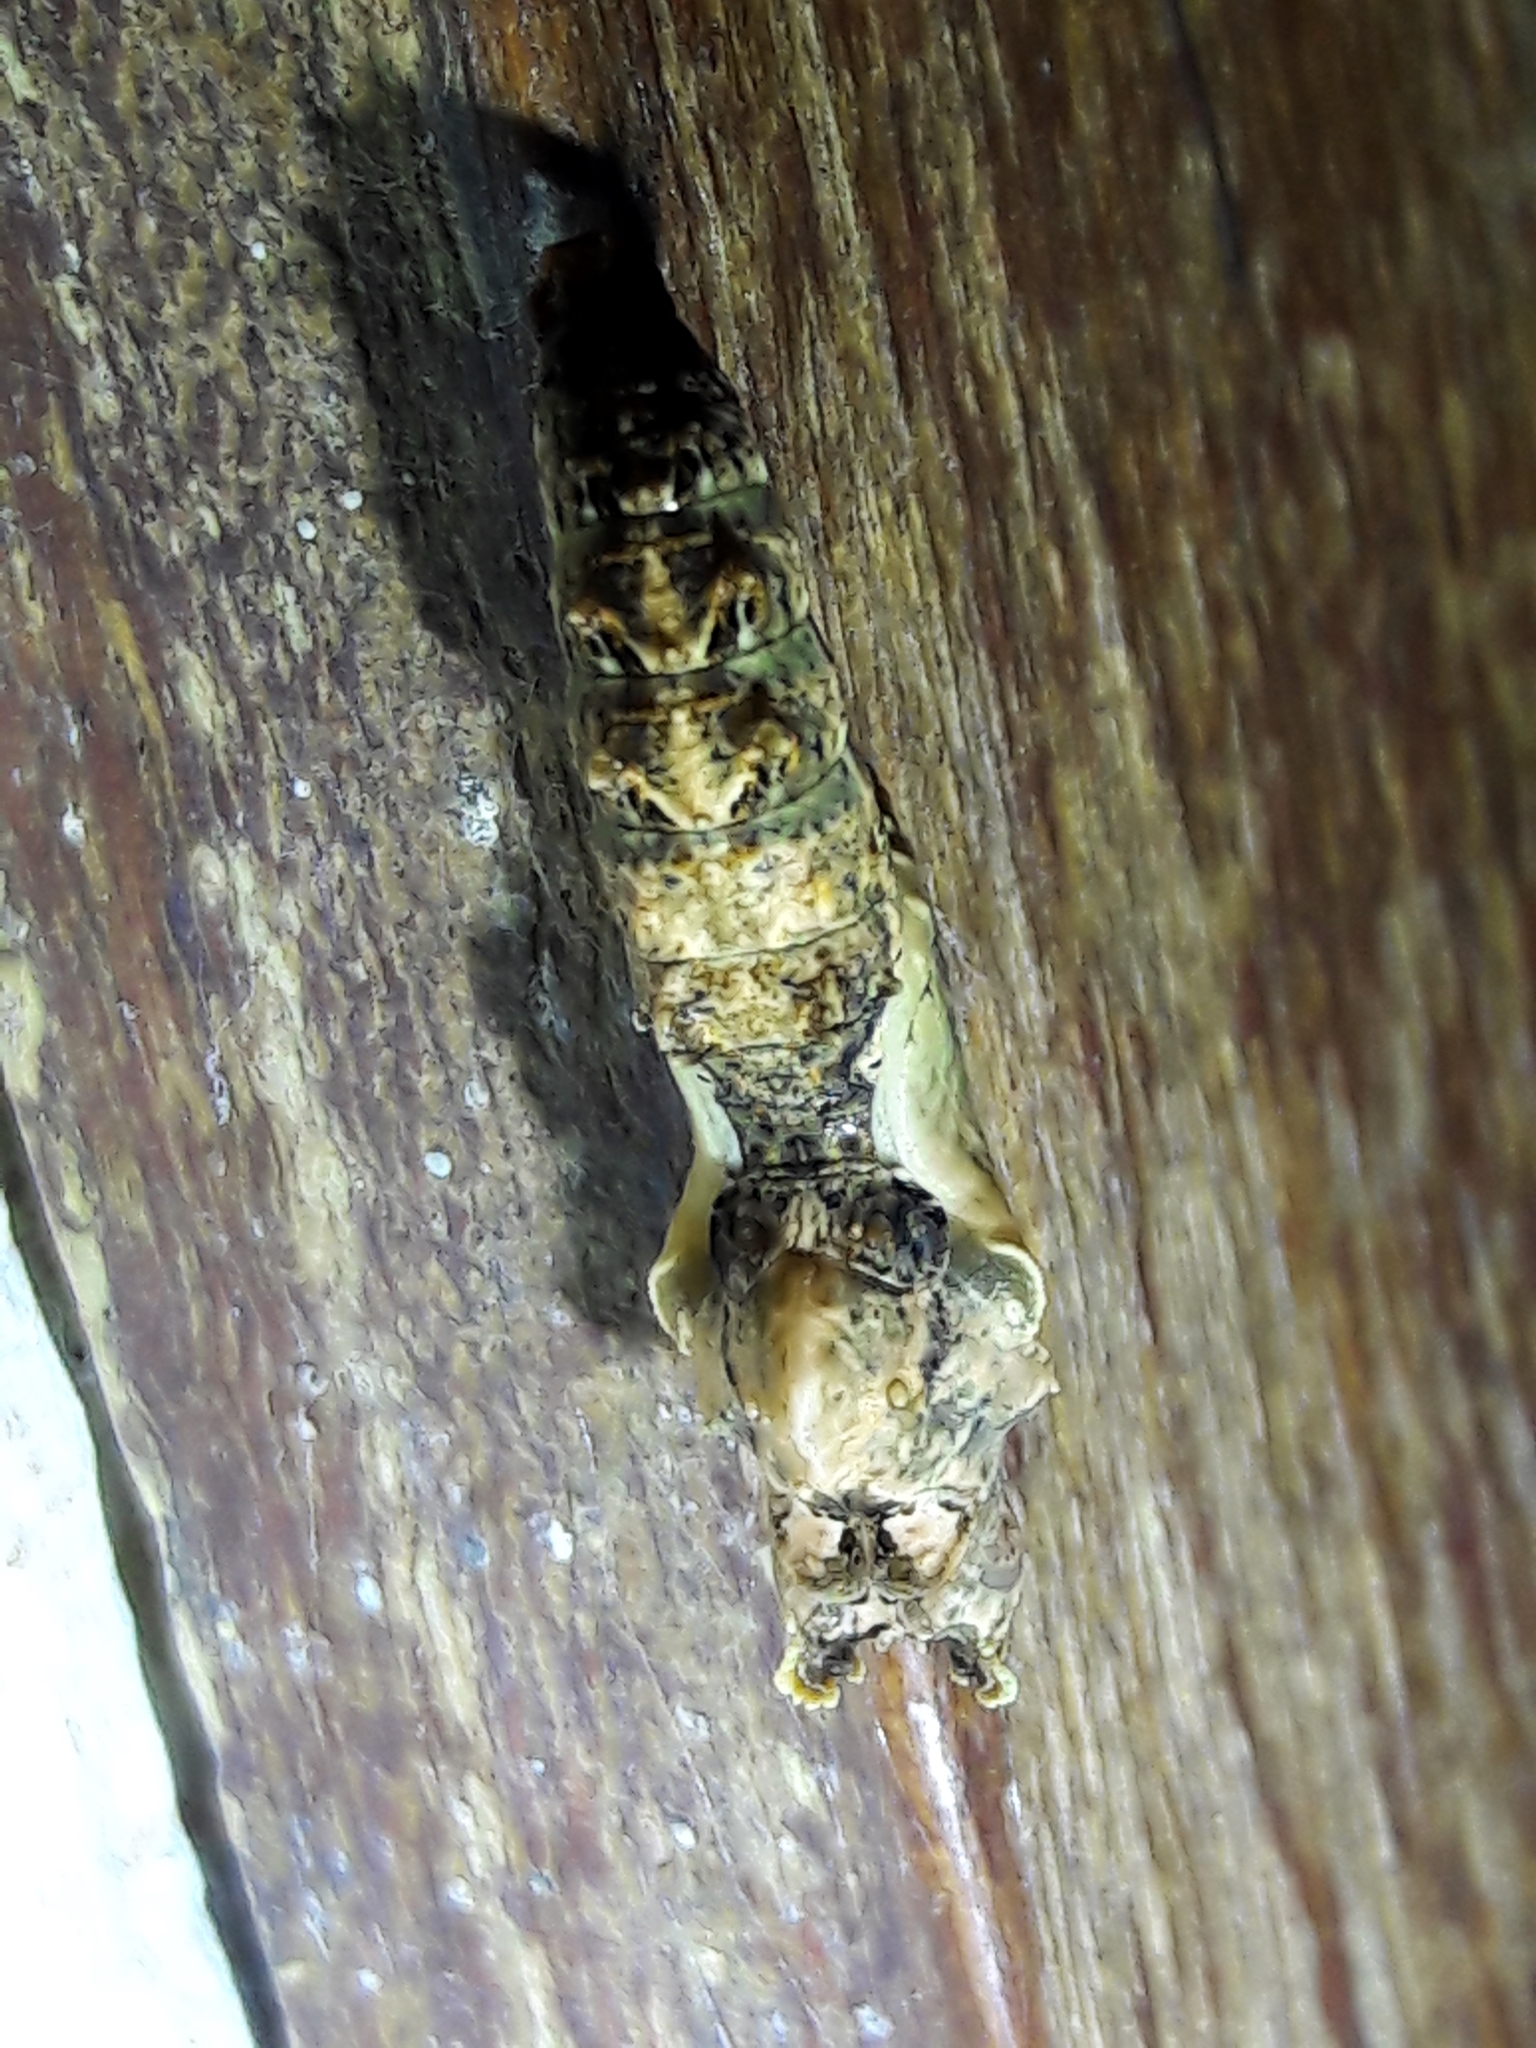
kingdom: Animalia
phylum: Arthropoda
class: Insecta
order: Lepidoptera
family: Nymphalidae
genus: Dione
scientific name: Dione vanillae
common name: Gulf fritillary
